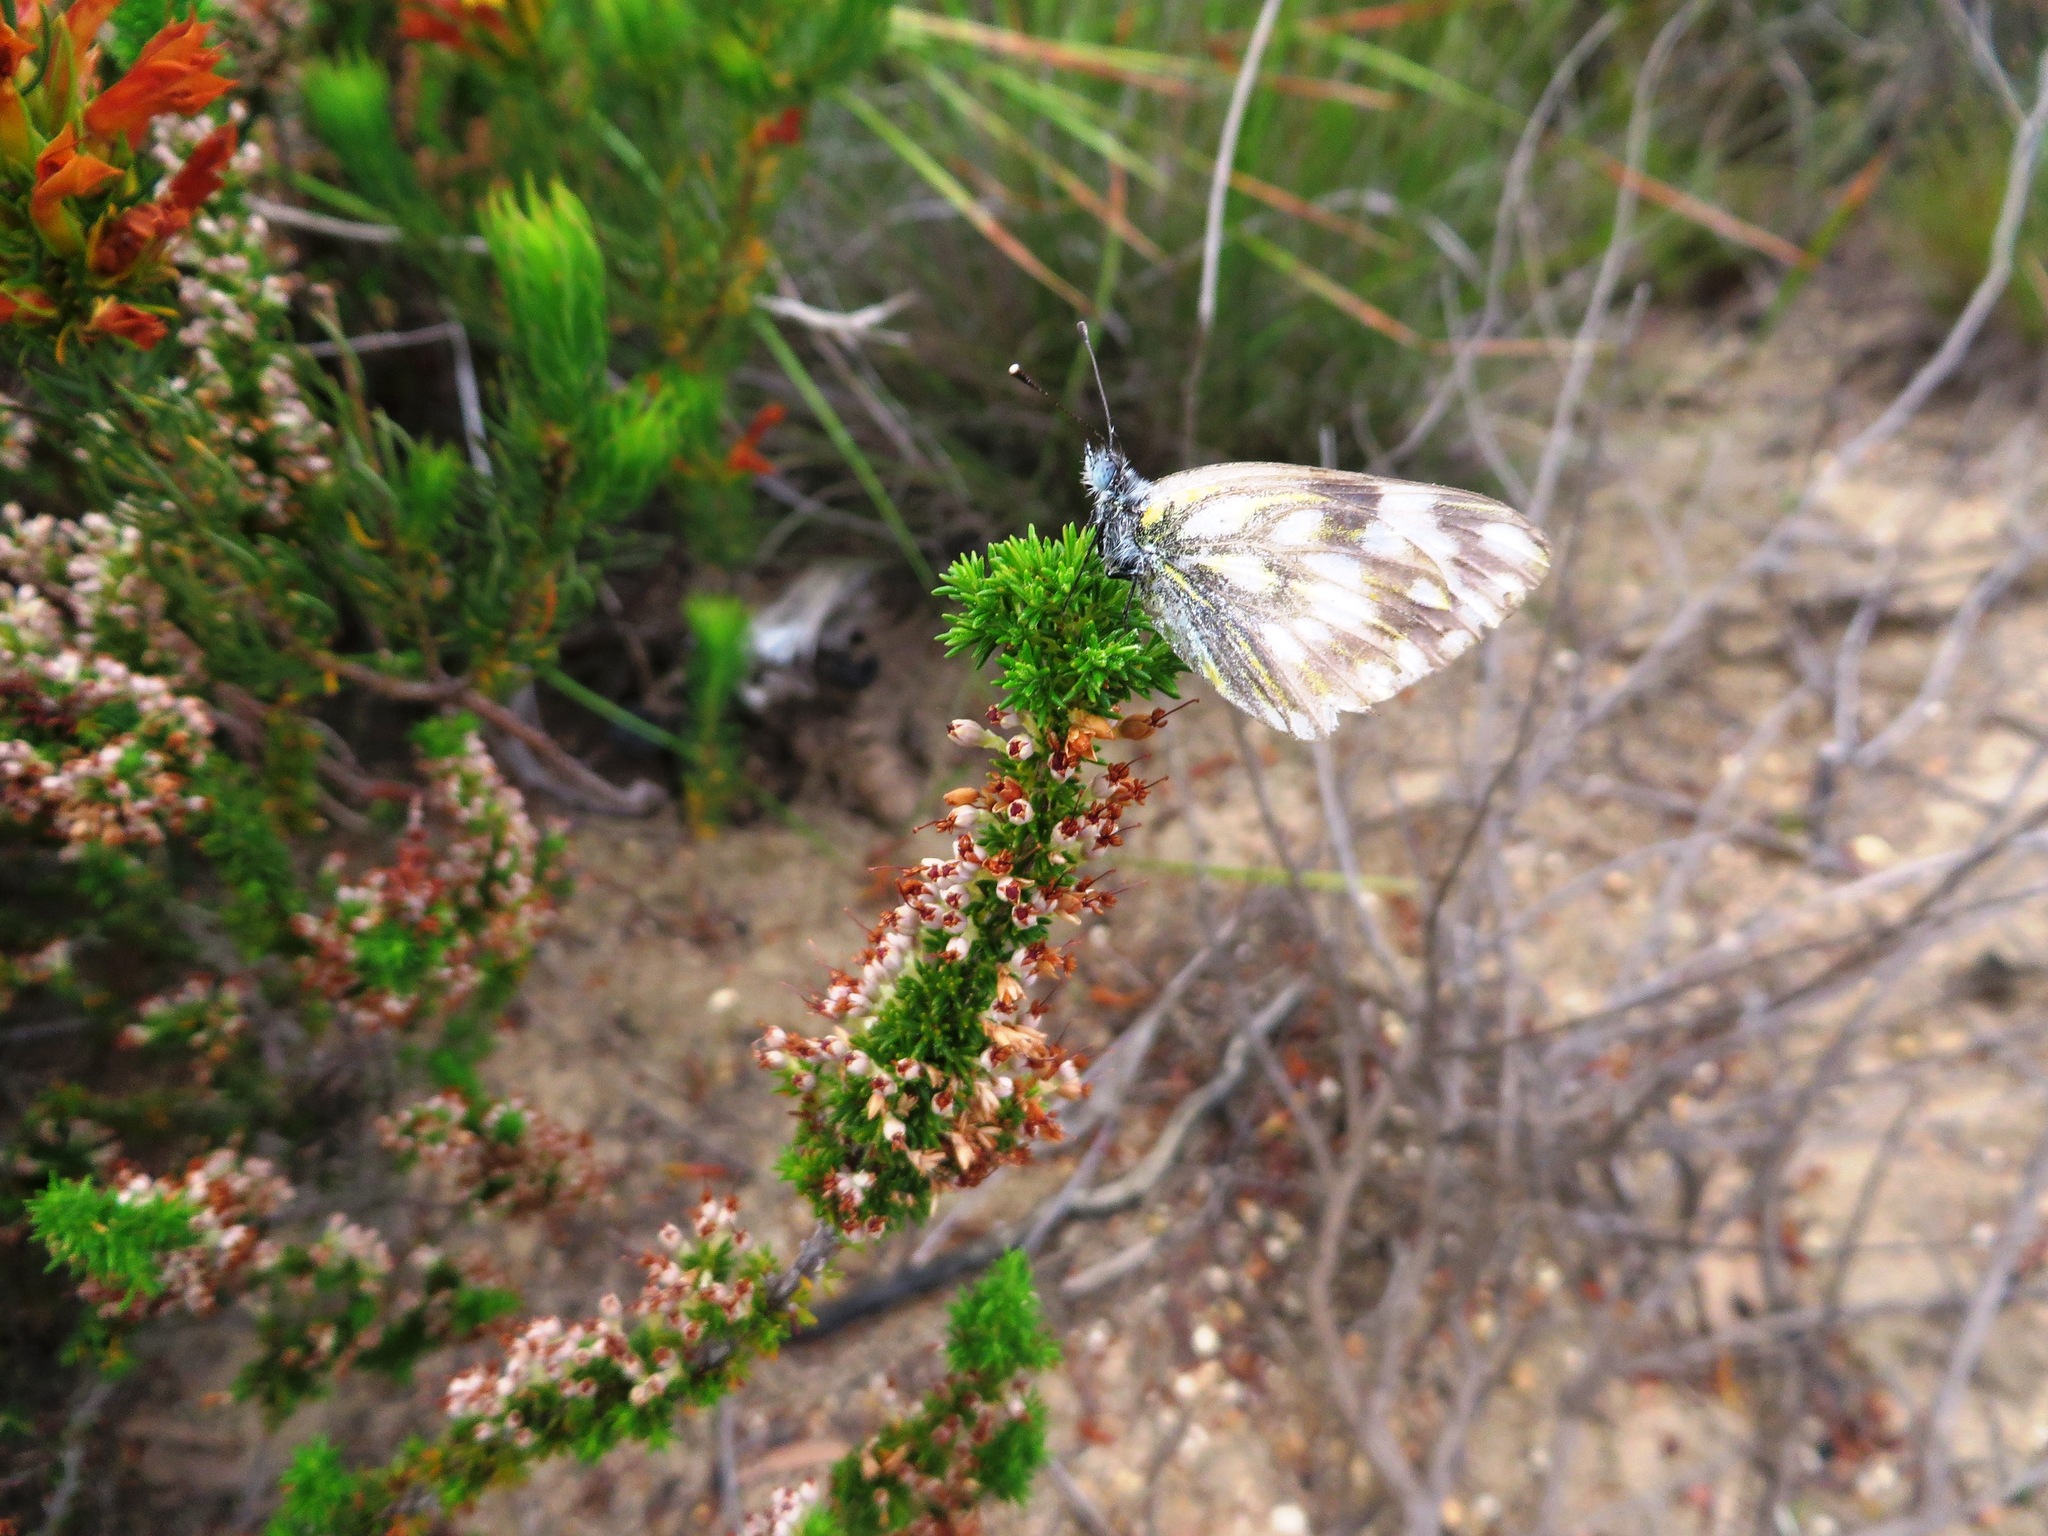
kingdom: Plantae
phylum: Tracheophyta
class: Magnoliopsida
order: Ericales
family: Ericaceae
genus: Erica
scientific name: Erica imbricata
